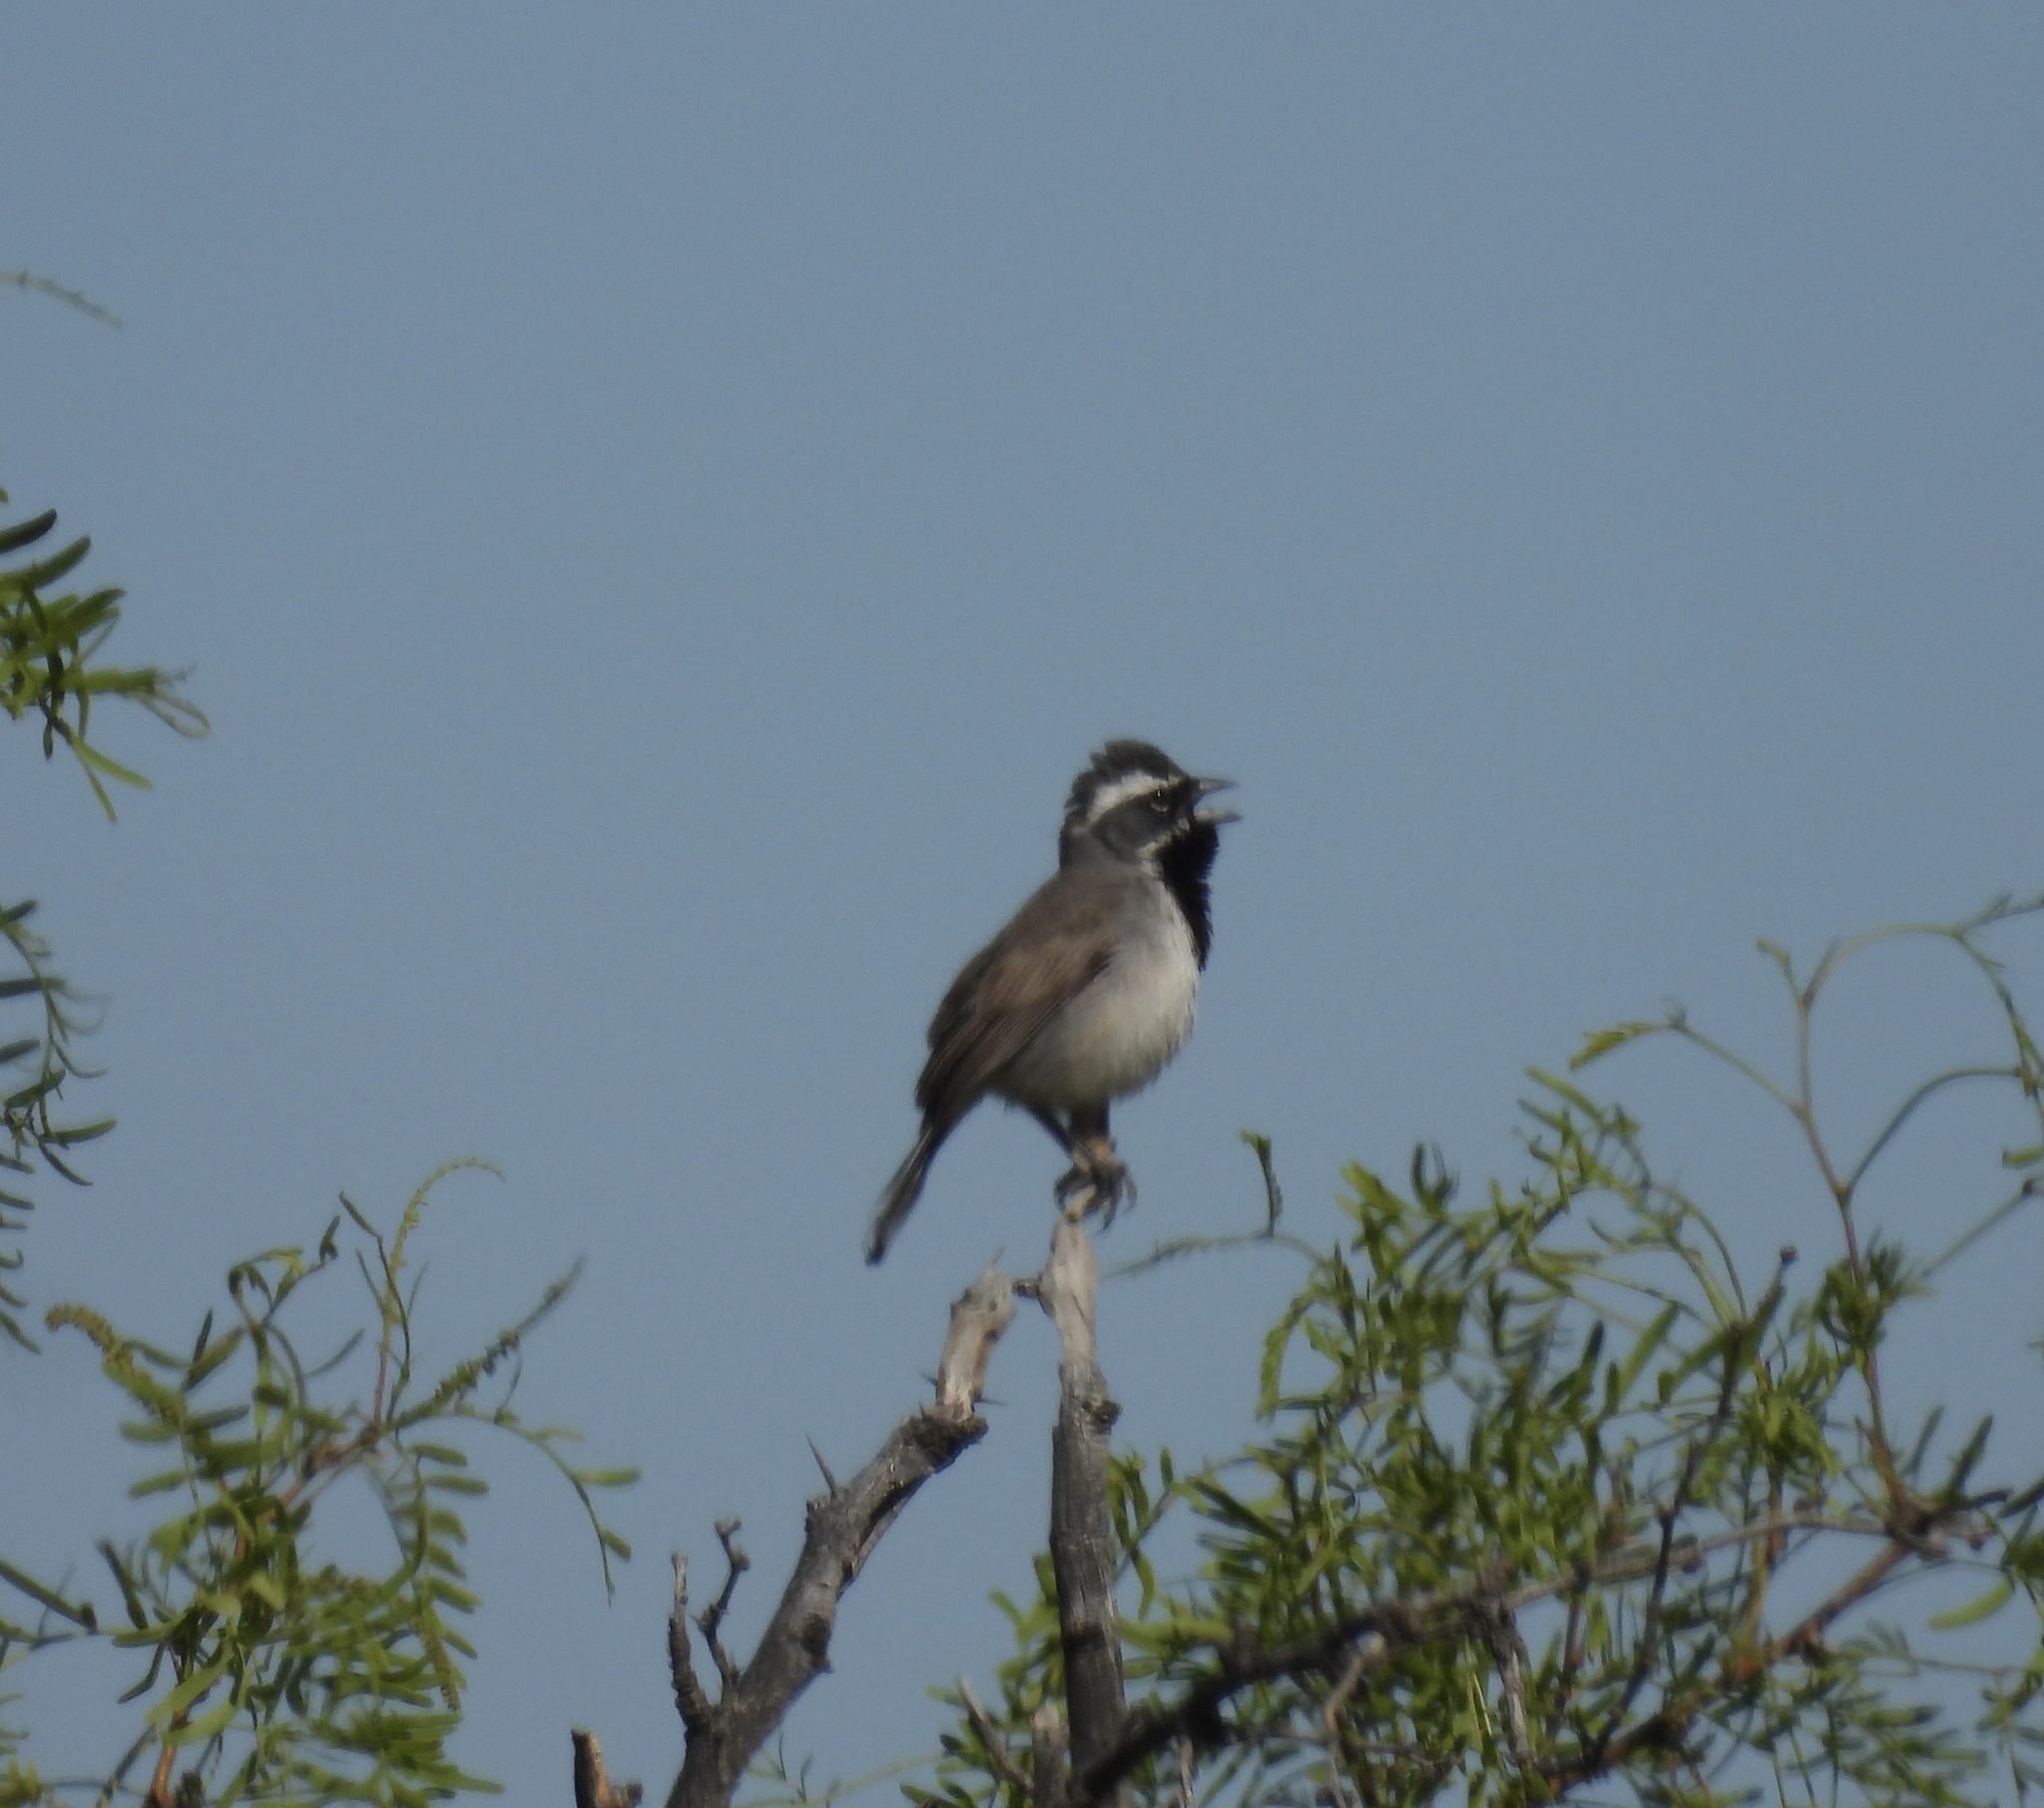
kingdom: Animalia
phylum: Chordata
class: Aves
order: Passeriformes
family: Passerellidae
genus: Amphispiza
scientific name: Amphispiza bilineata
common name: Black-throated sparrow
